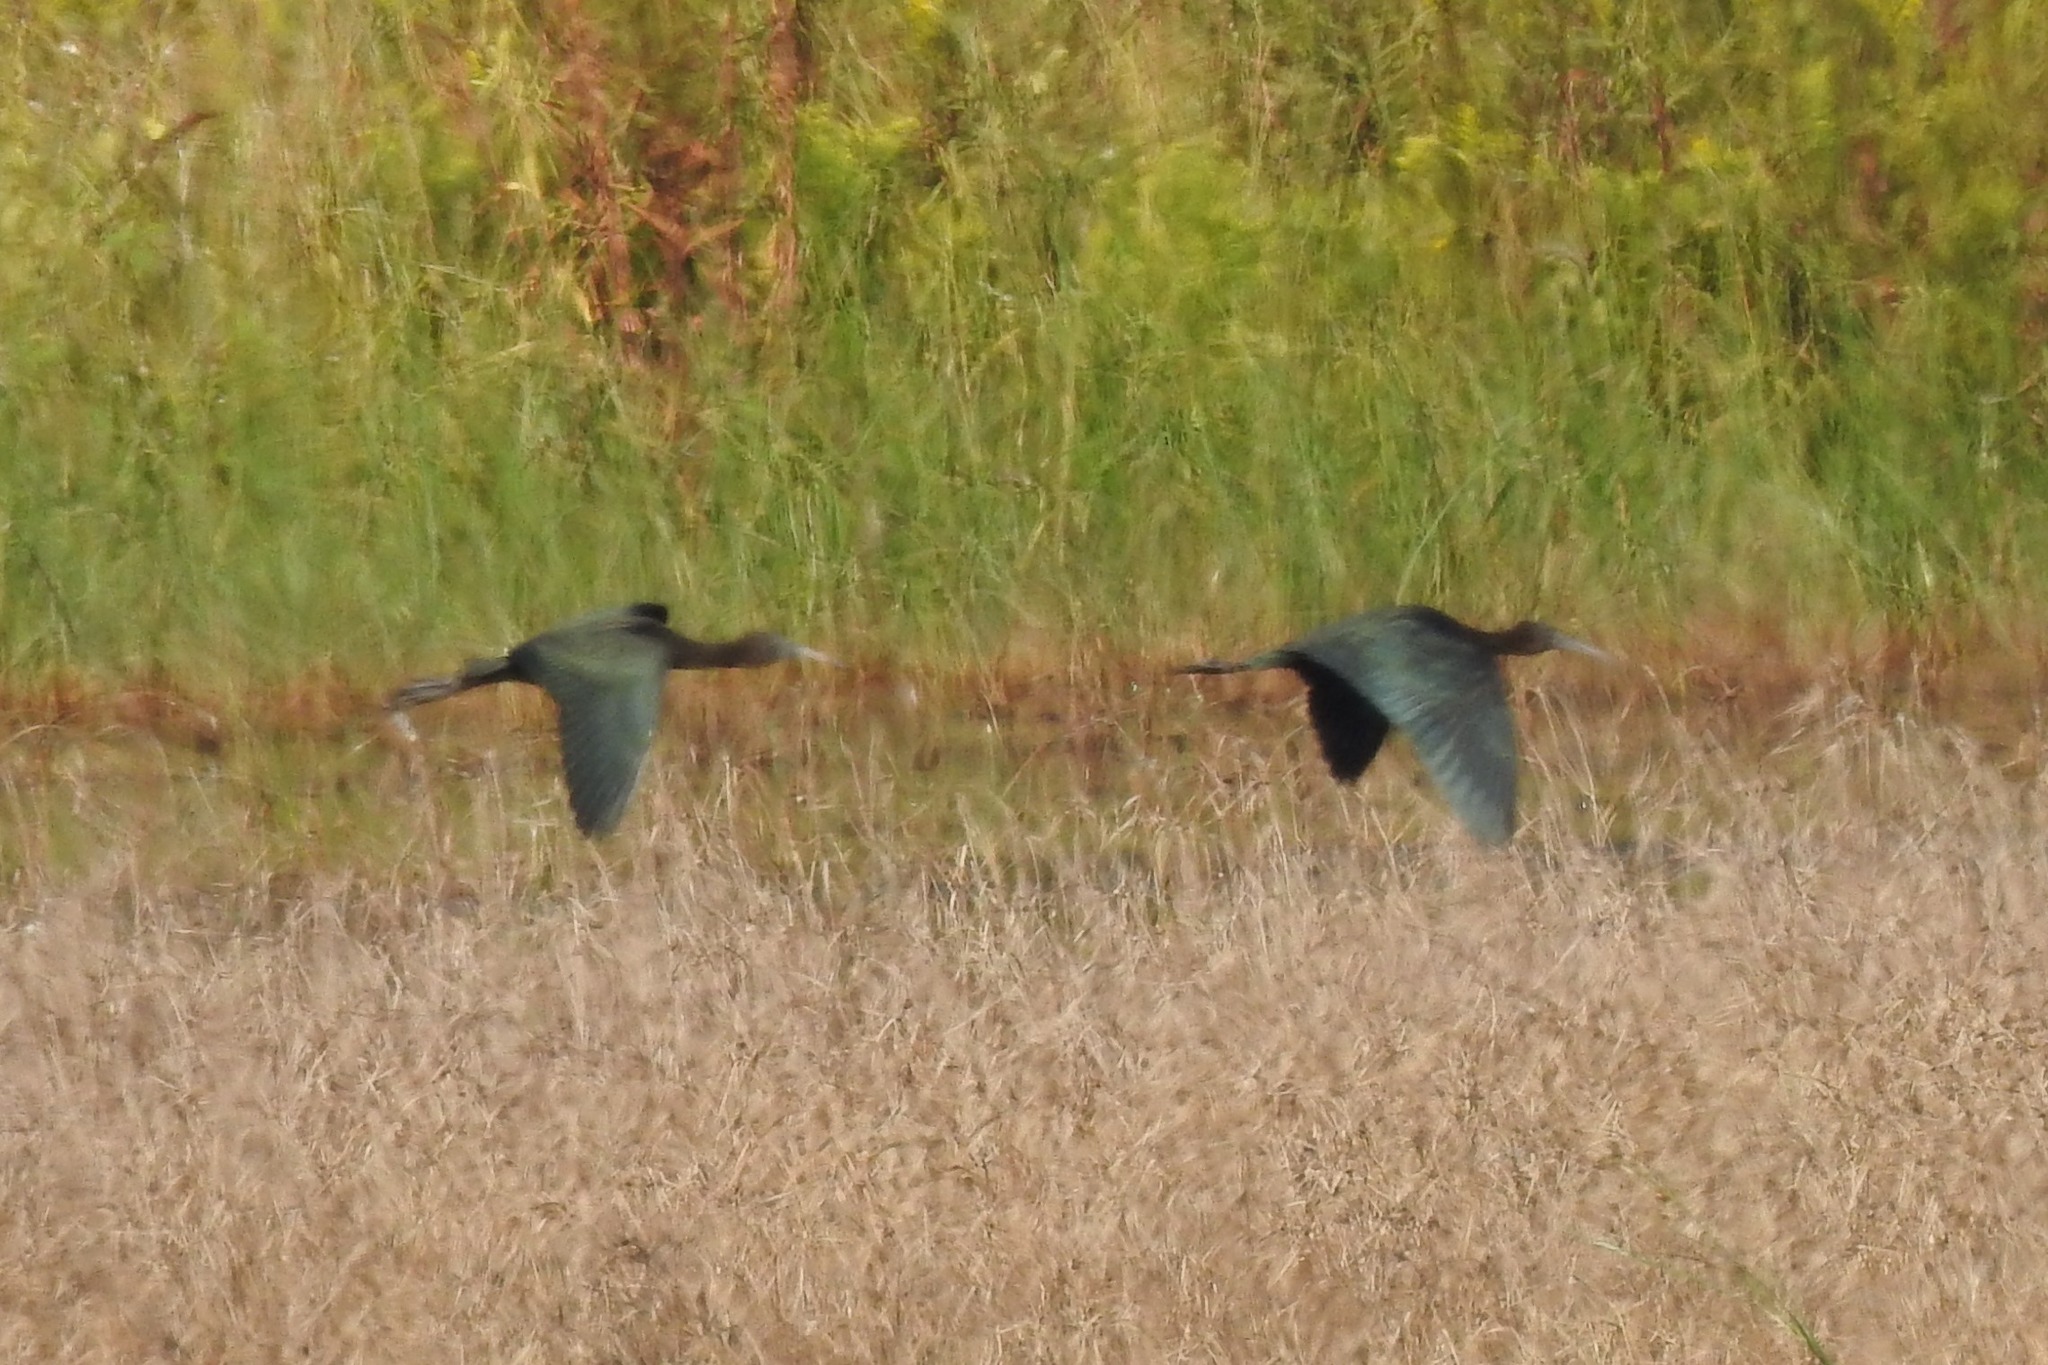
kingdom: Animalia
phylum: Chordata
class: Aves
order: Pelecaniformes
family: Threskiornithidae
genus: Plegadis
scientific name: Plegadis falcinellus
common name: Glossy ibis
